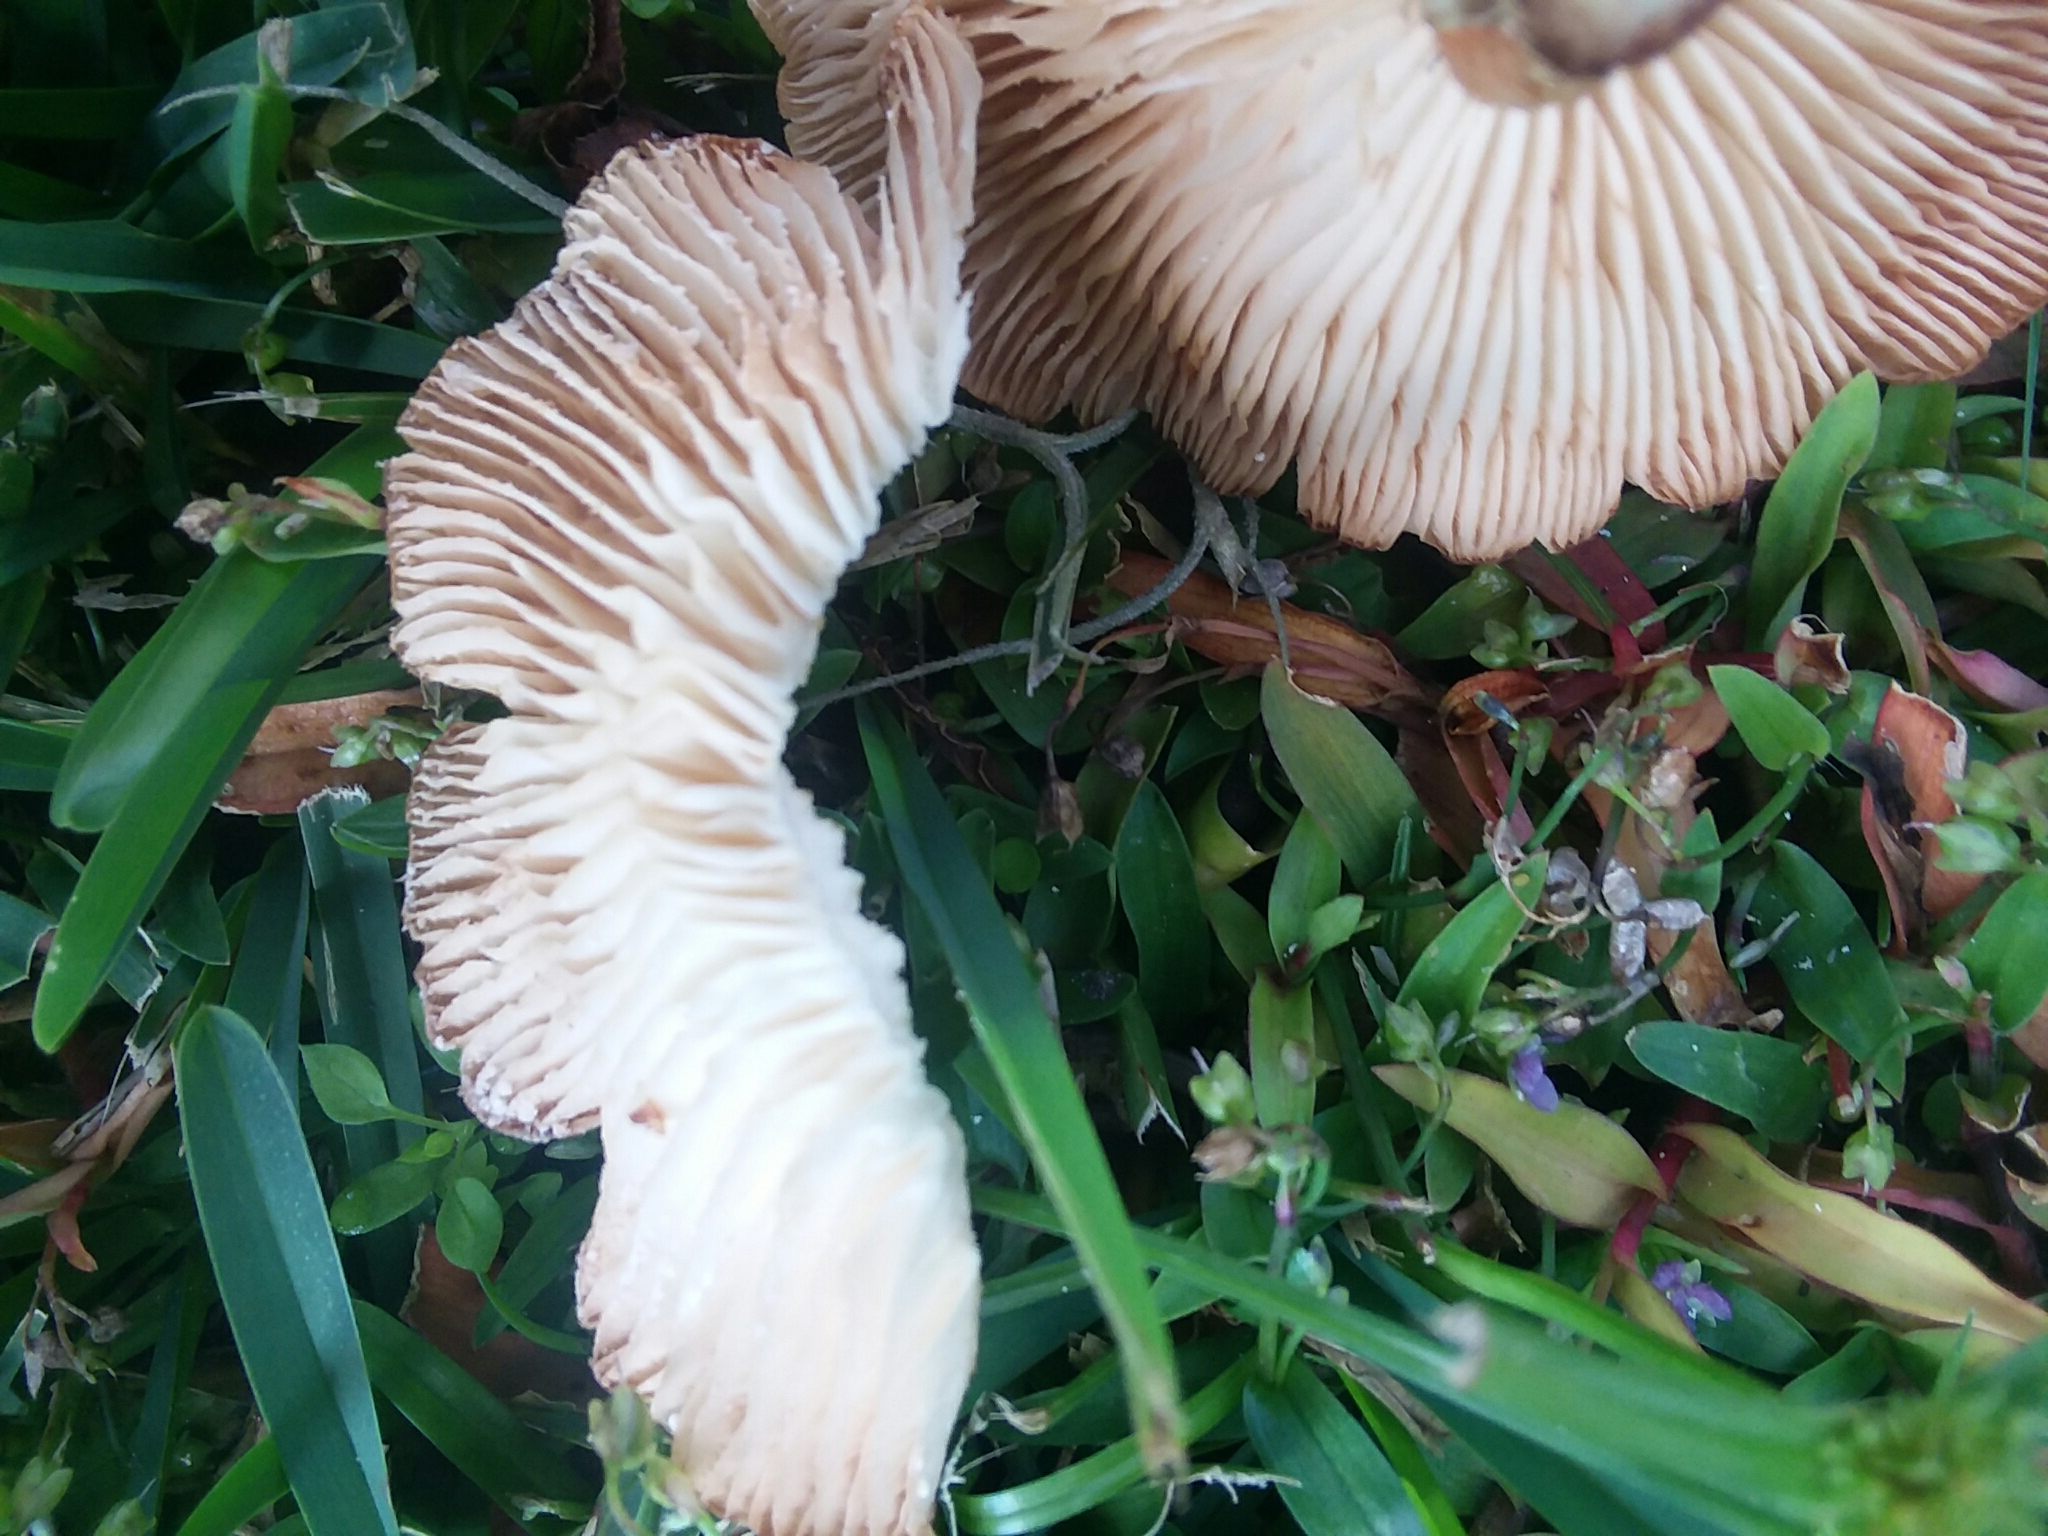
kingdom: Fungi
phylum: Basidiomycota
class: Agaricomycetes
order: Agaricales
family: Physalacriaceae
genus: Desarmillaria
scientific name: Desarmillaria caespitosa
